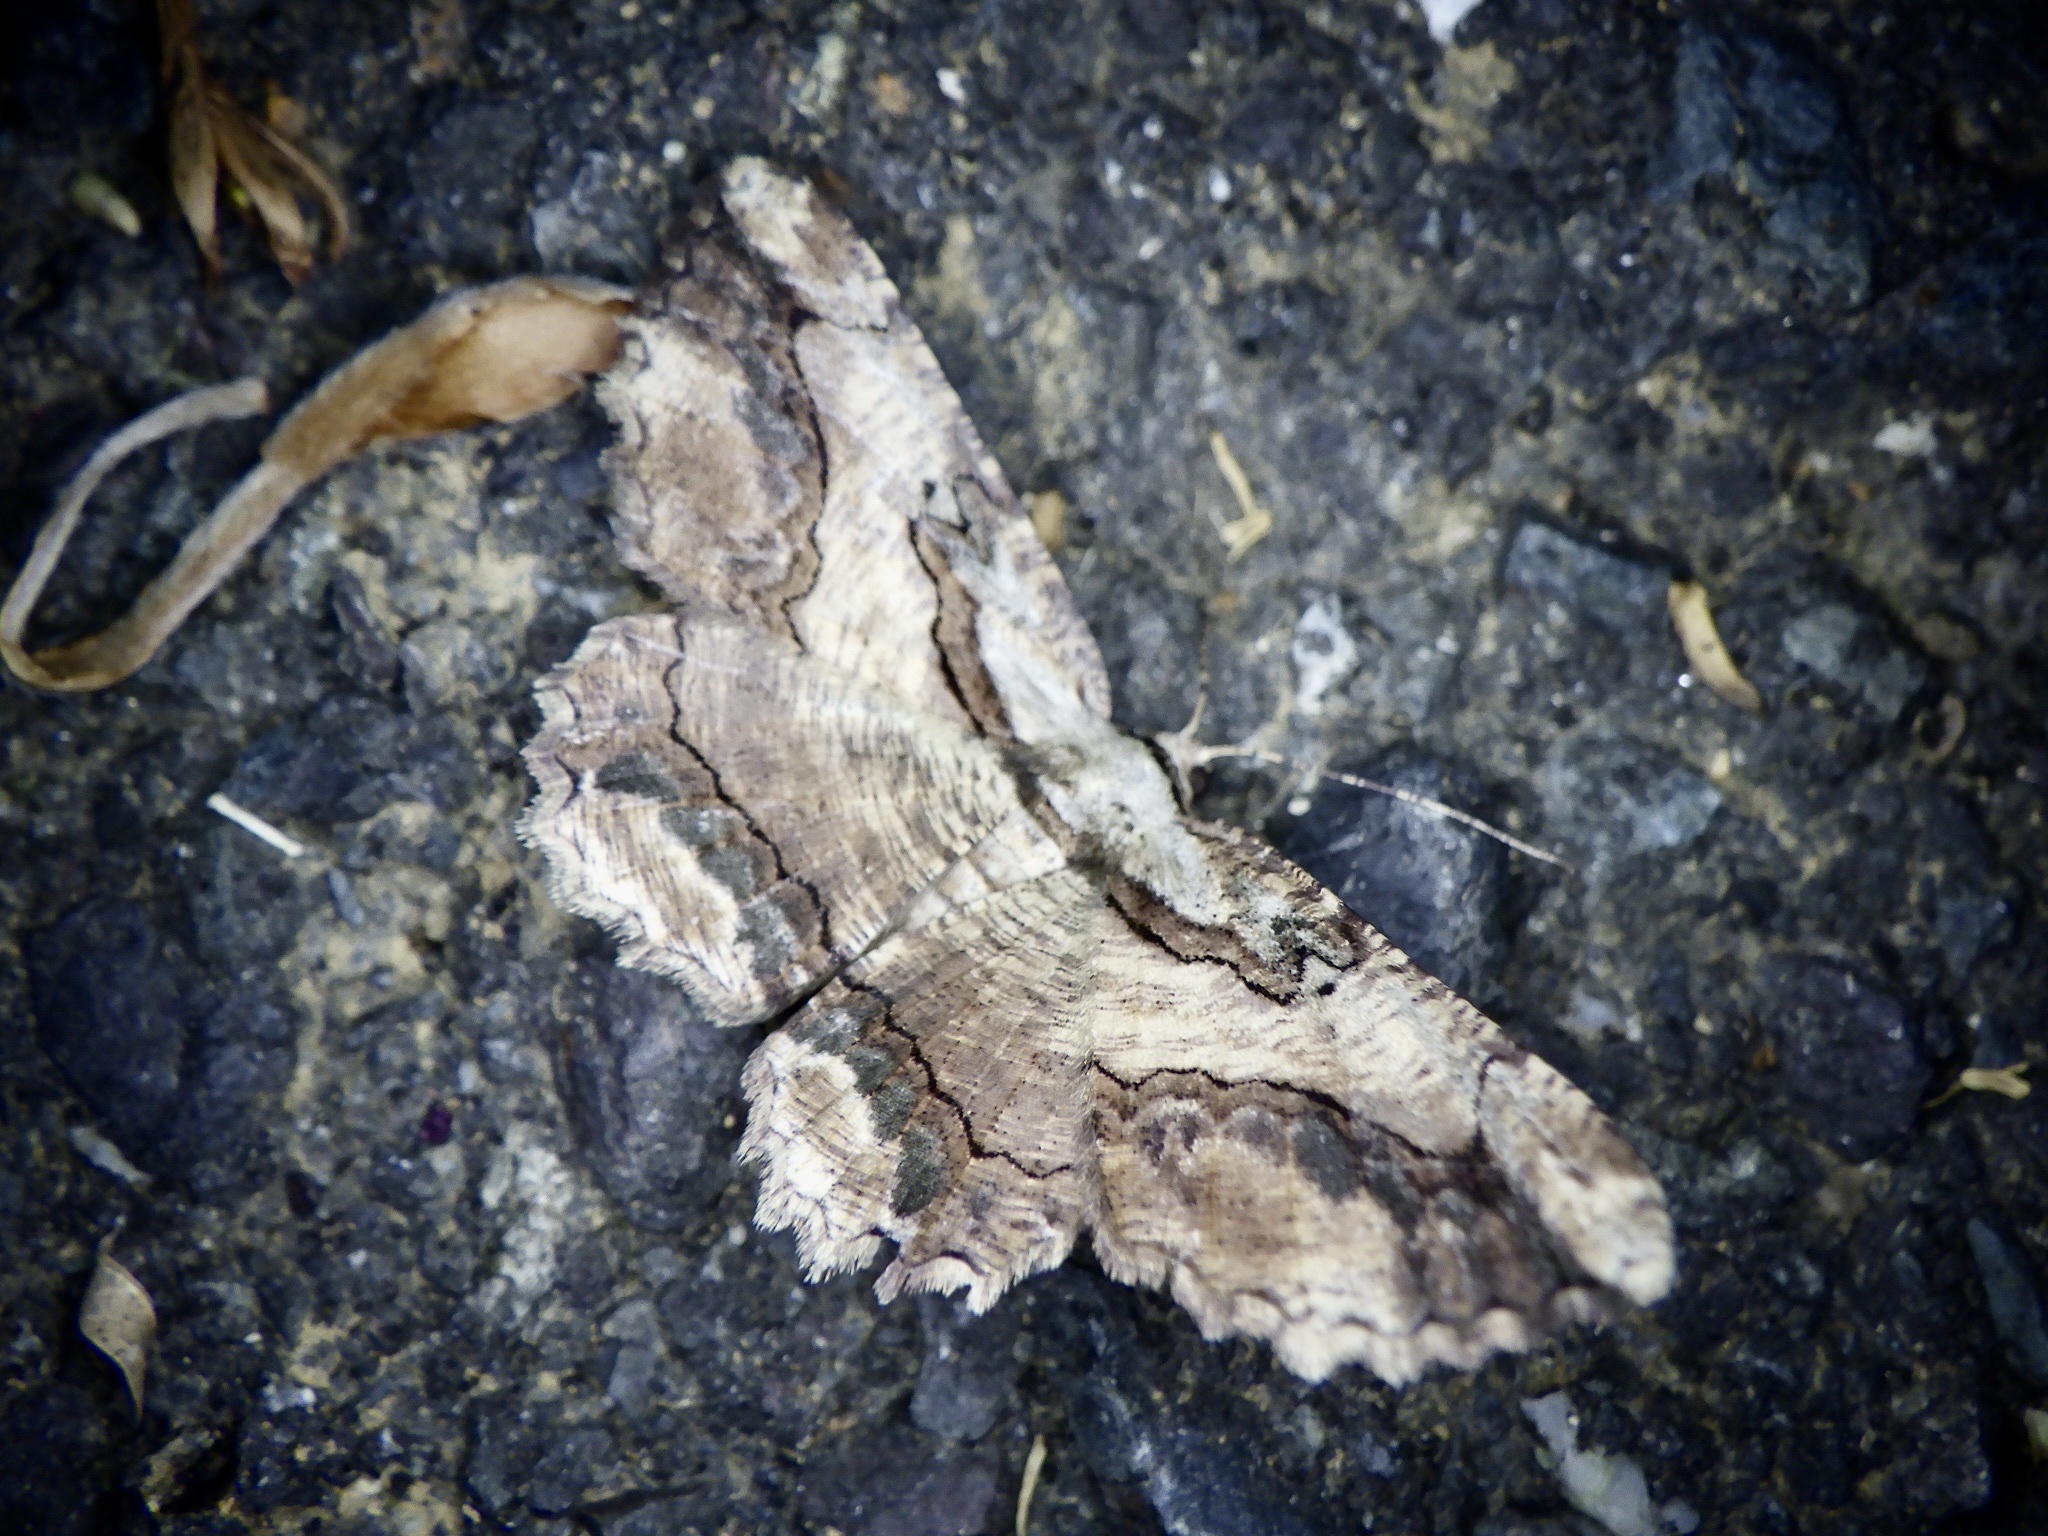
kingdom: Animalia
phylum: Arthropoda
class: Insecta
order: Lepidoptera
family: Geometridae
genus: Menophra
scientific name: Menophra senilis
